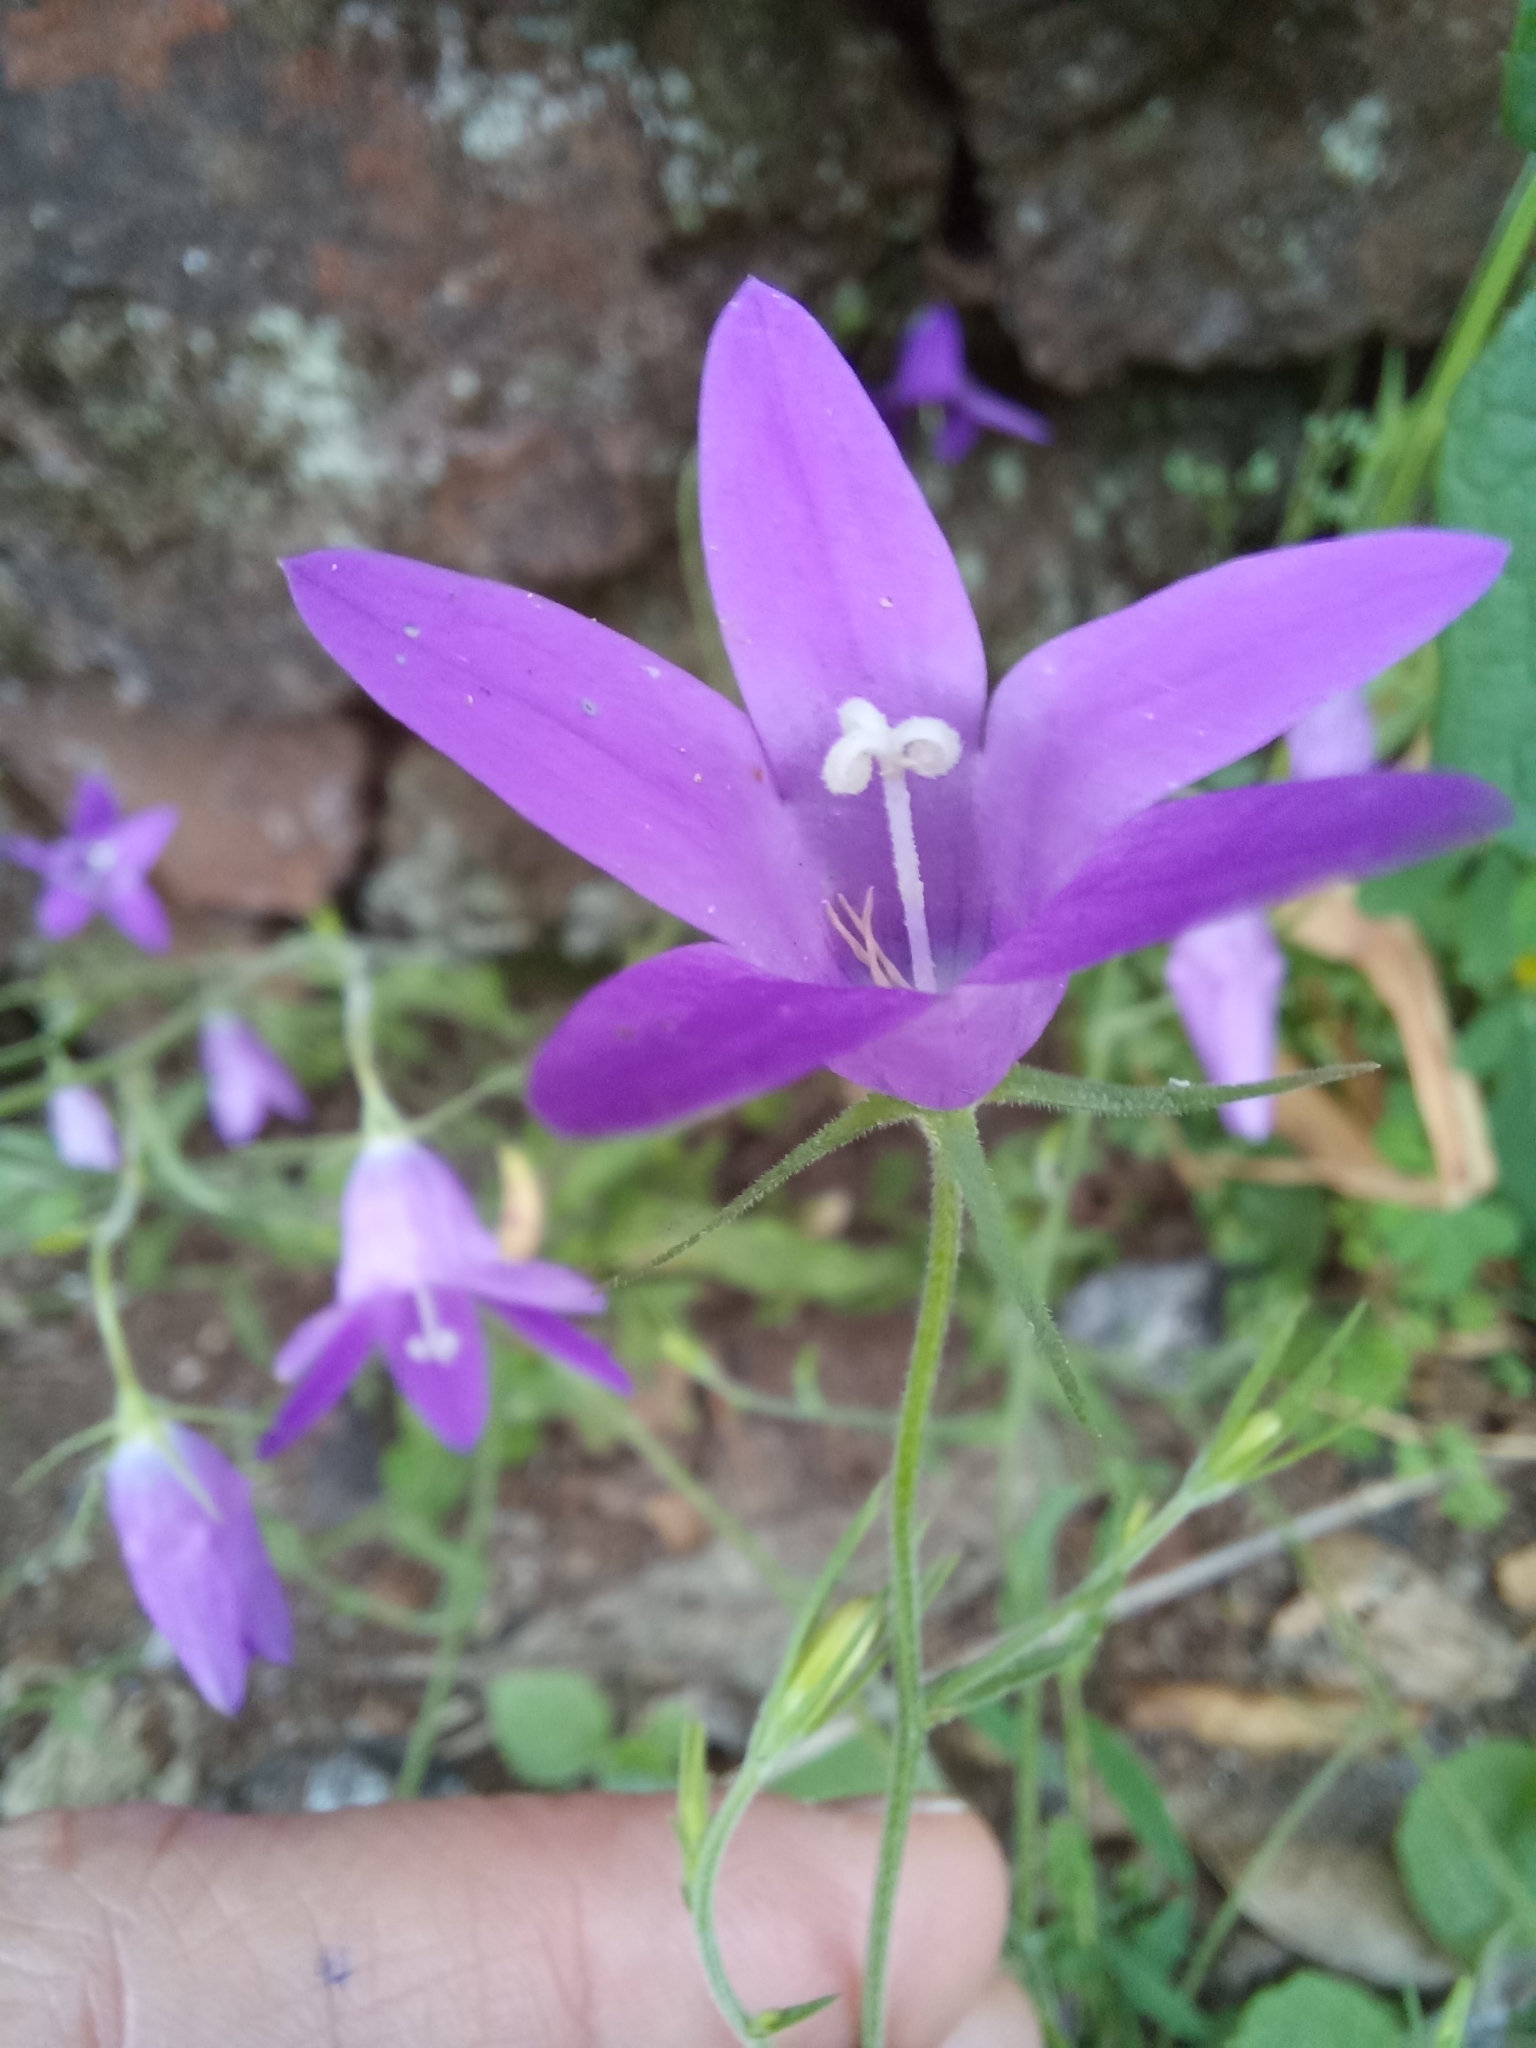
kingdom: Plantae
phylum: Tracheophyta
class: Magnoliopsida
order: Asterales
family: Campanulaceae
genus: Campanula
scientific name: Campanula lusitanica
